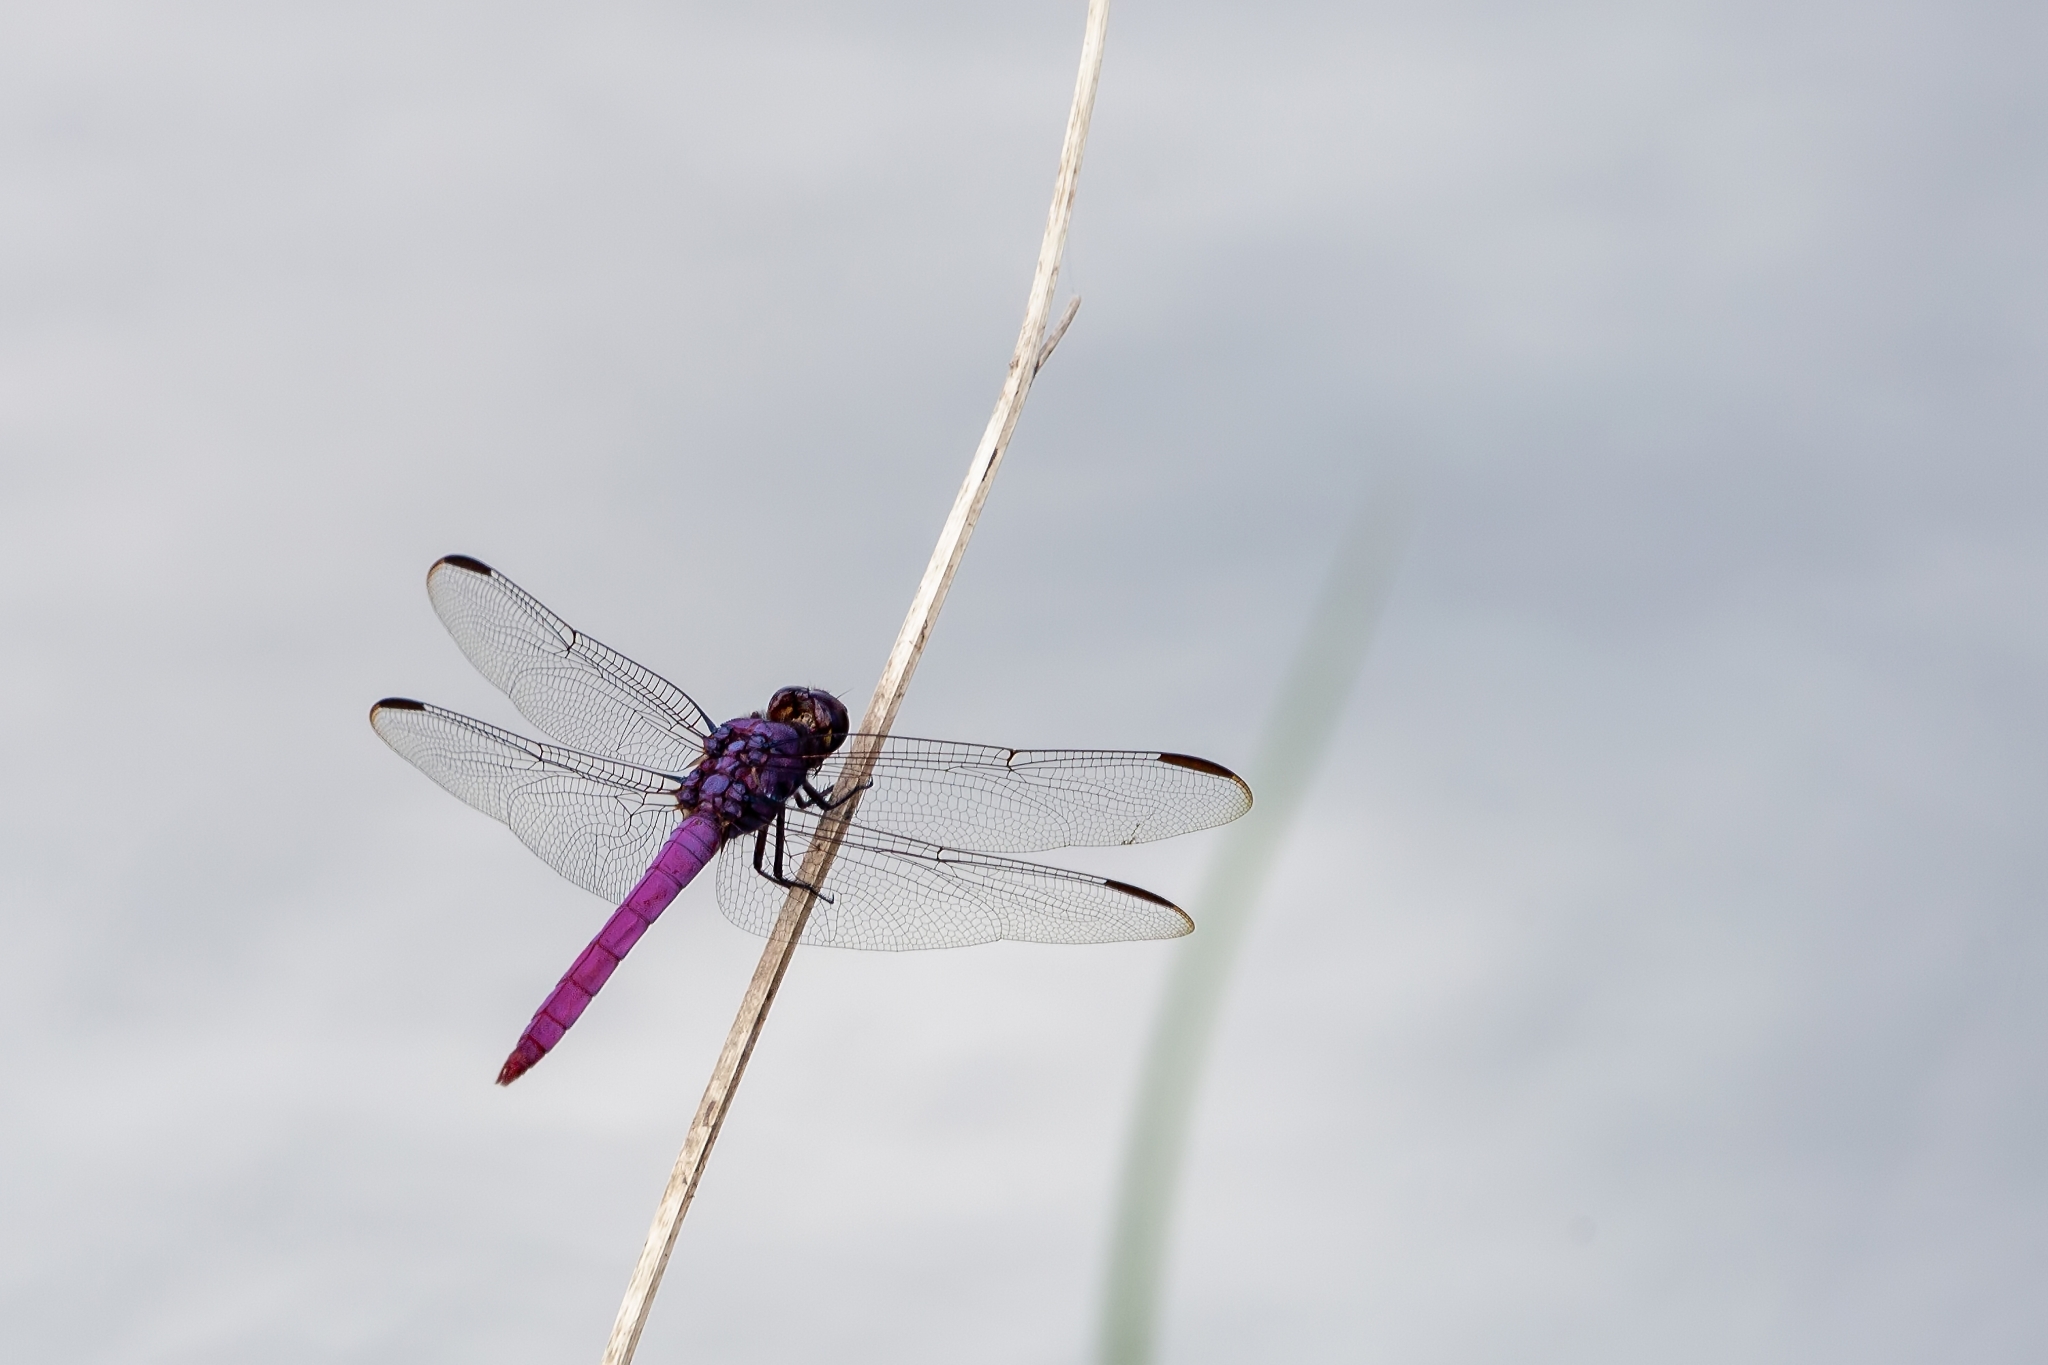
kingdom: Animalia
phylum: Arthropoda
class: Insecta
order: Odonata
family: Libellulidae
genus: Orthemis
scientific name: Orthemis ferruginea
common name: Roseate skimmer
